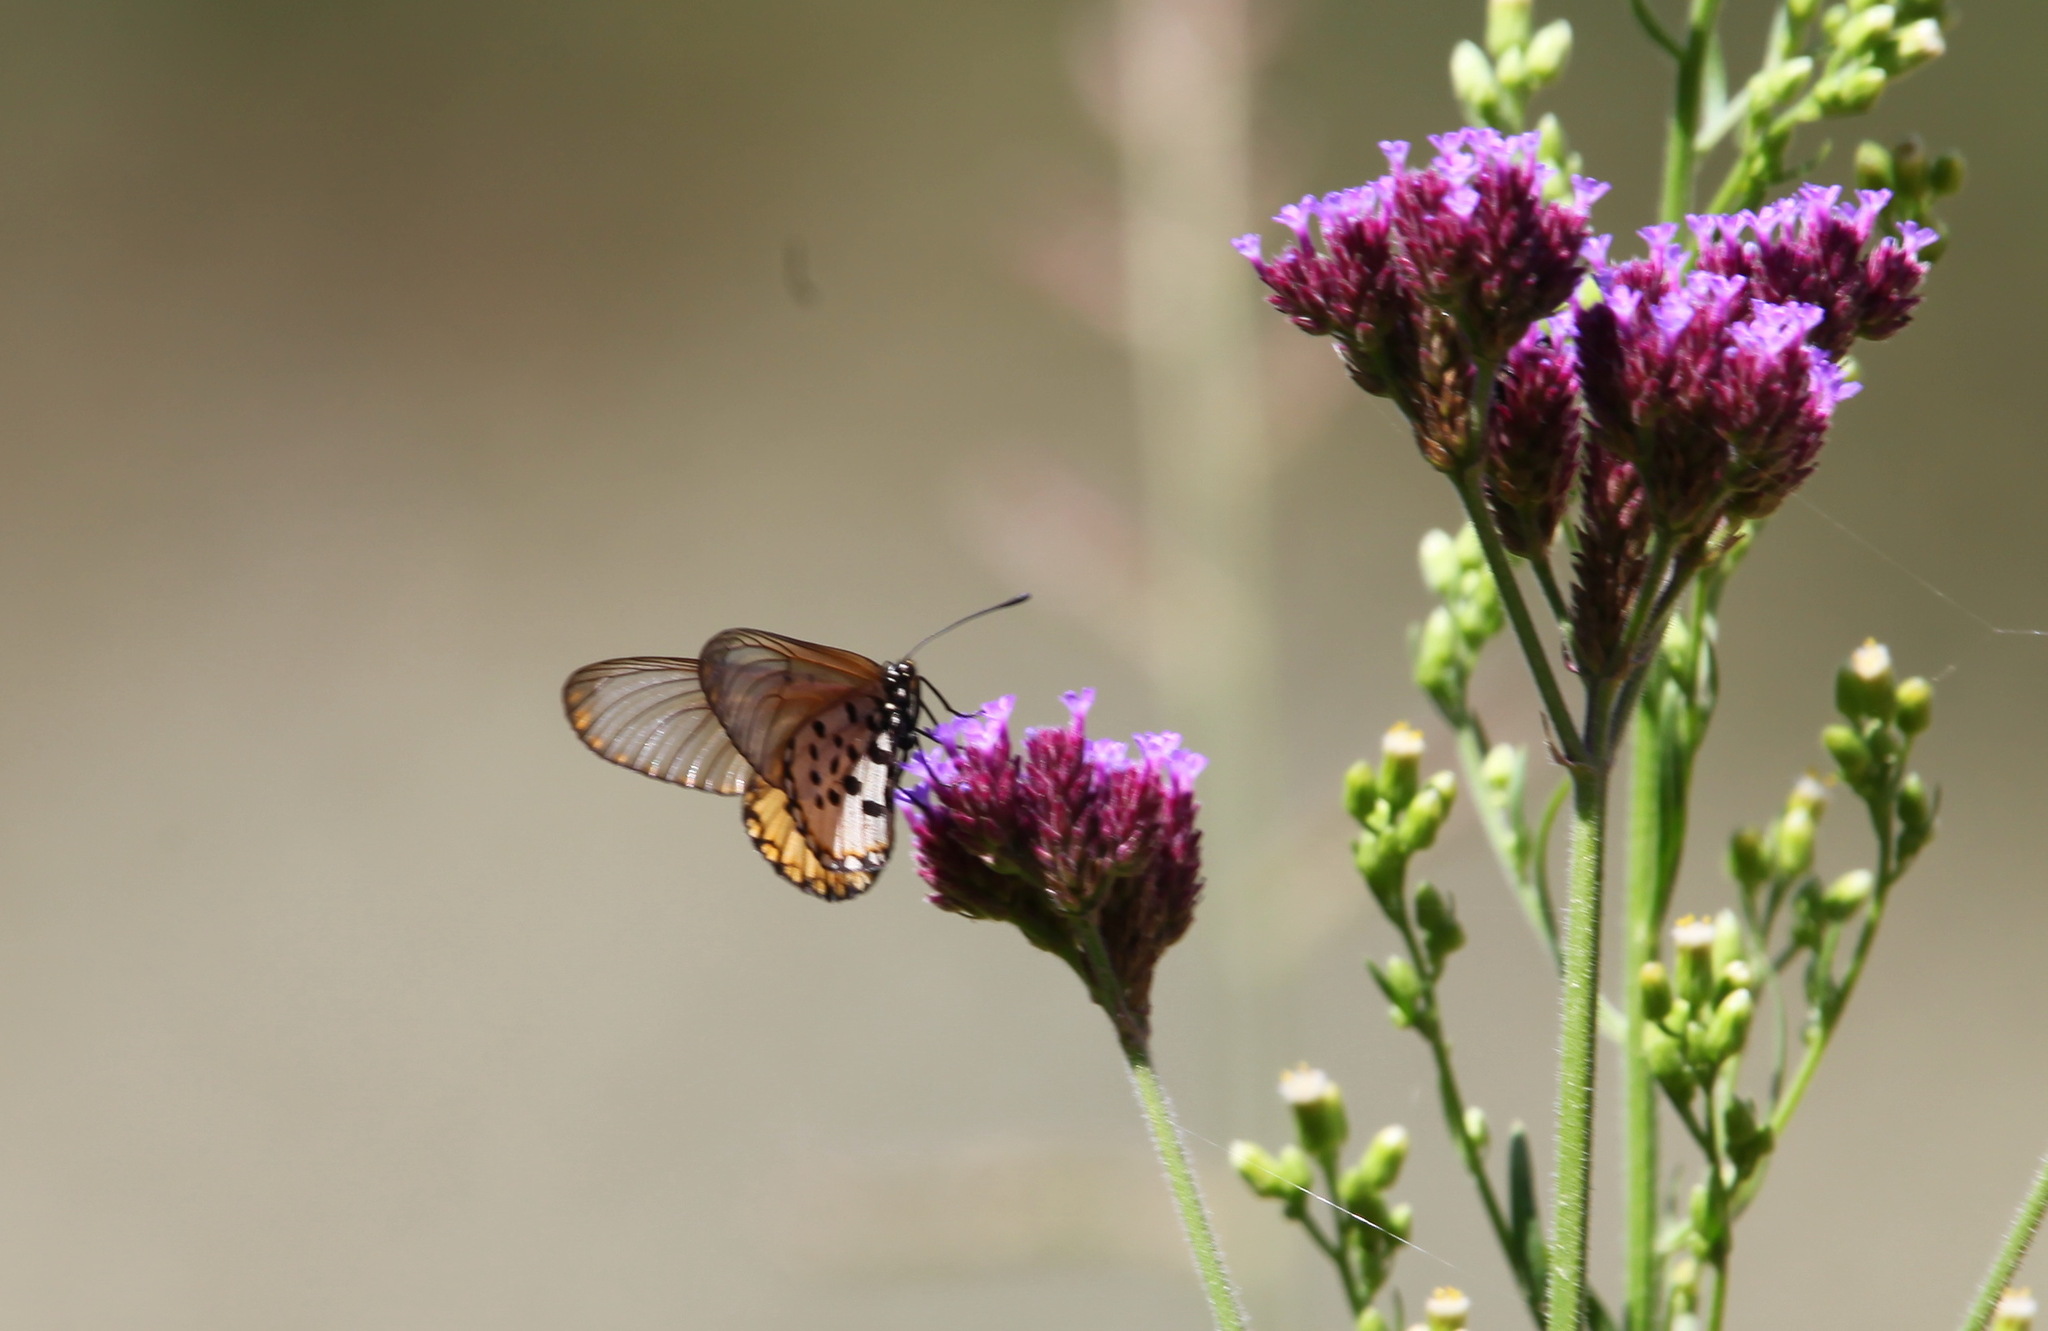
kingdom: Animalia
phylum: Arthropoda
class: Insecta
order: Lepidoptera
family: Nymphalidae
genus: Acraea
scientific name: Acraea horta
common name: Garden acraea
